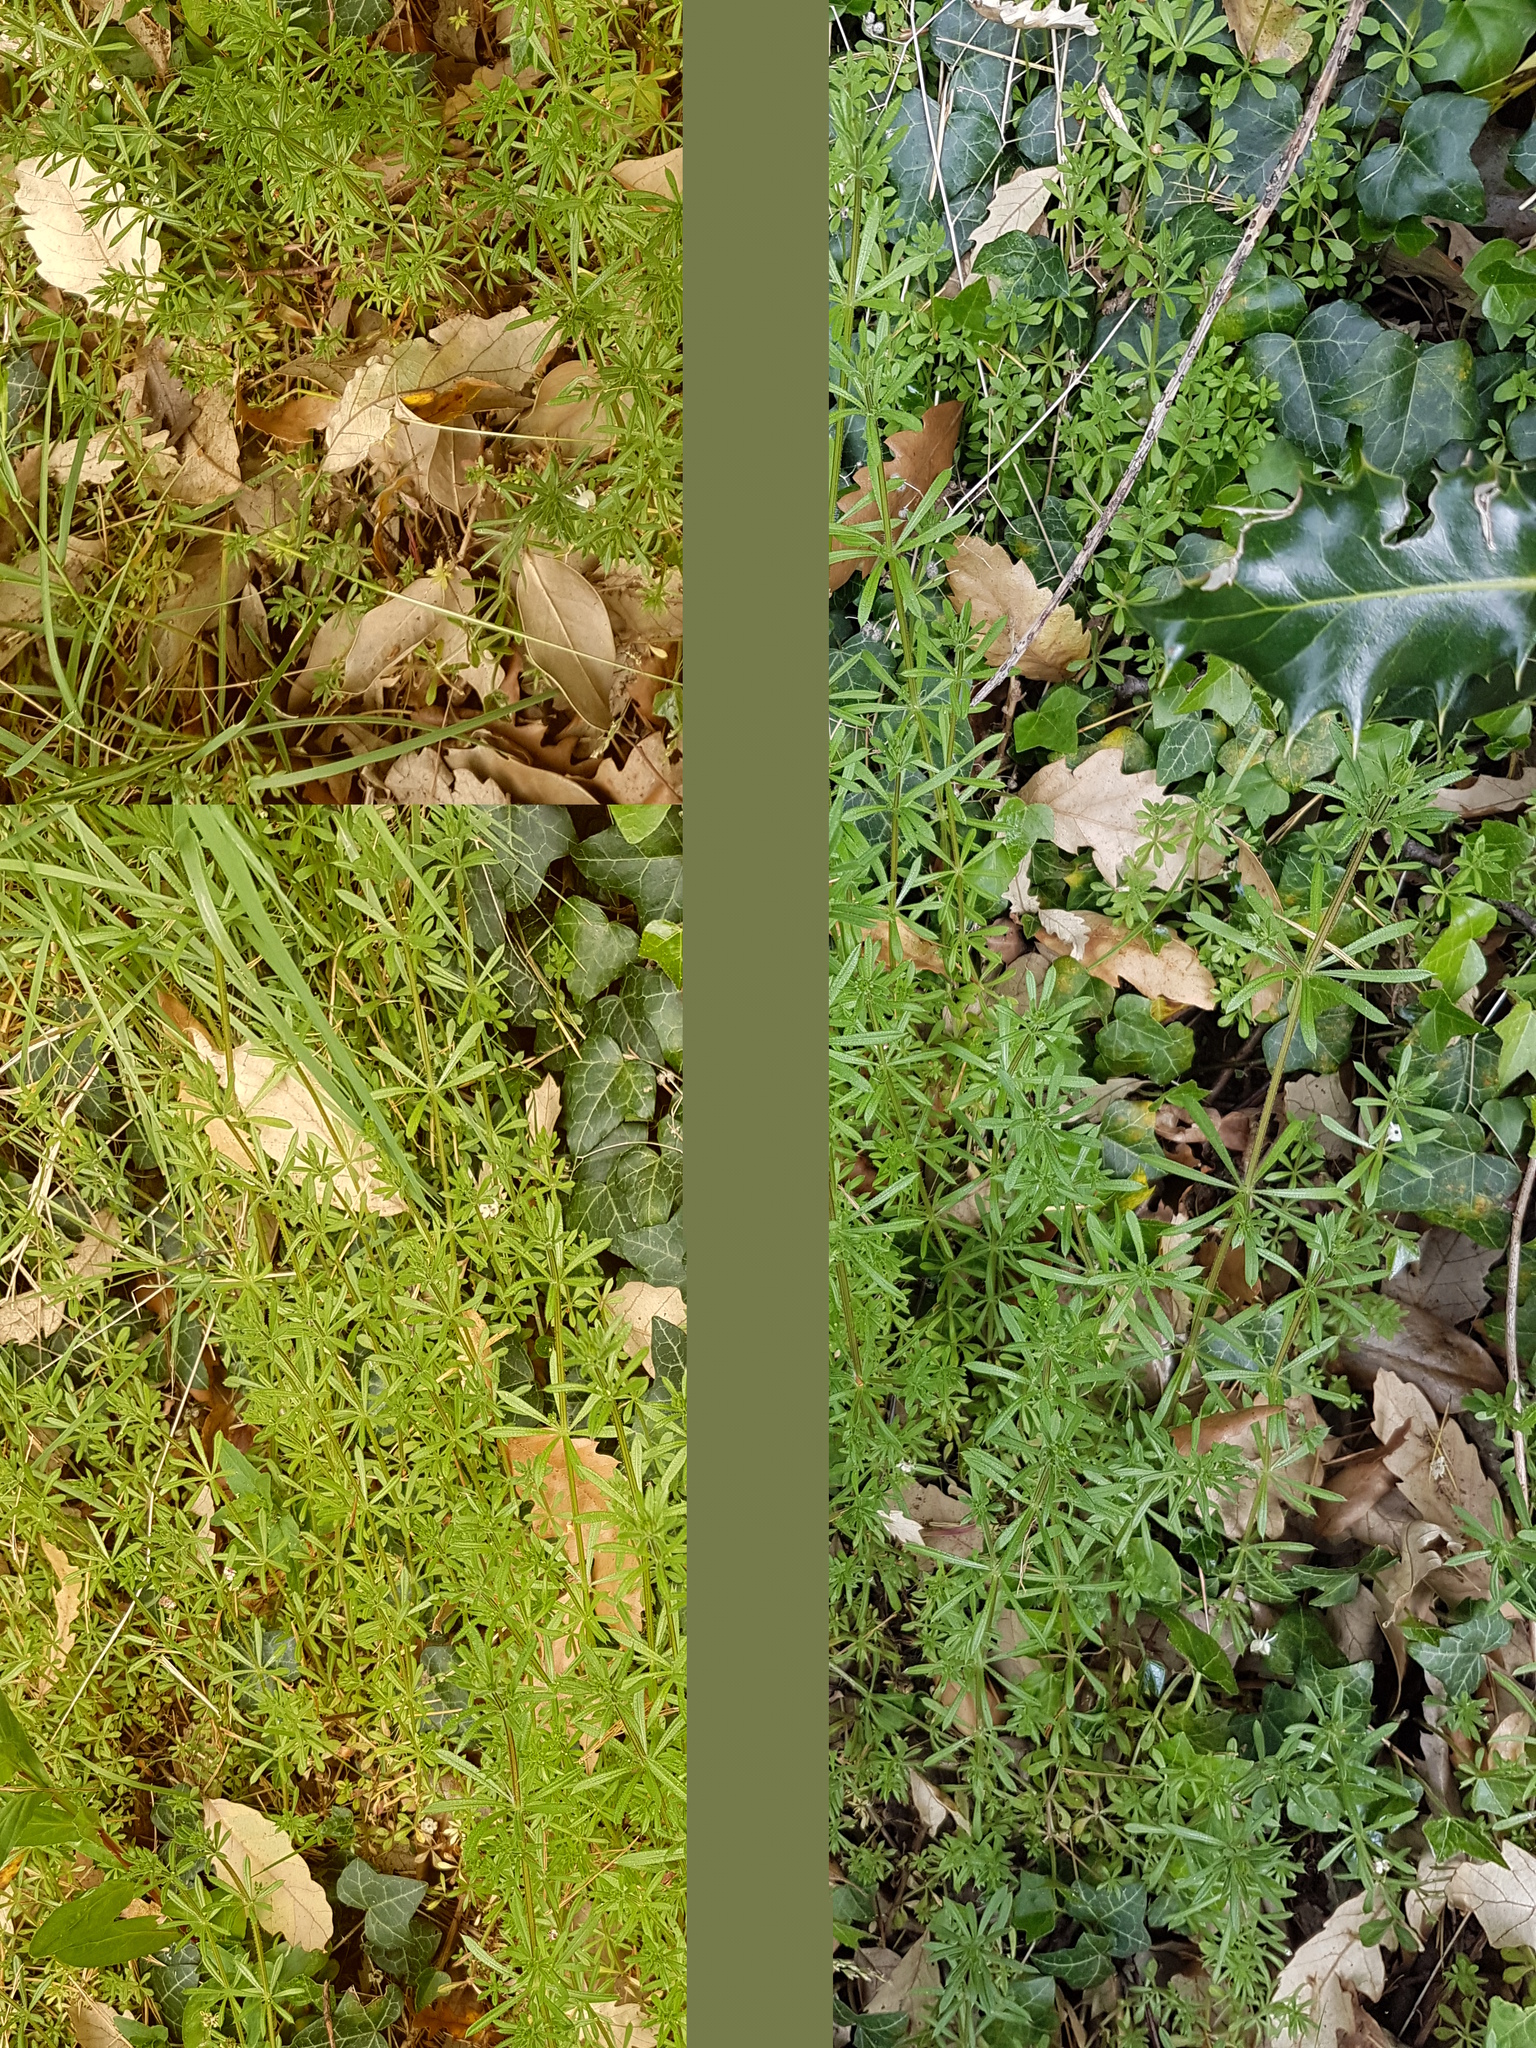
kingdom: Plantae
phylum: Tracheophyta
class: Magnoliopsida
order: Gentianales
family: Rubiaceae
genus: Galium
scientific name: Galium aparine
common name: Cleavers
